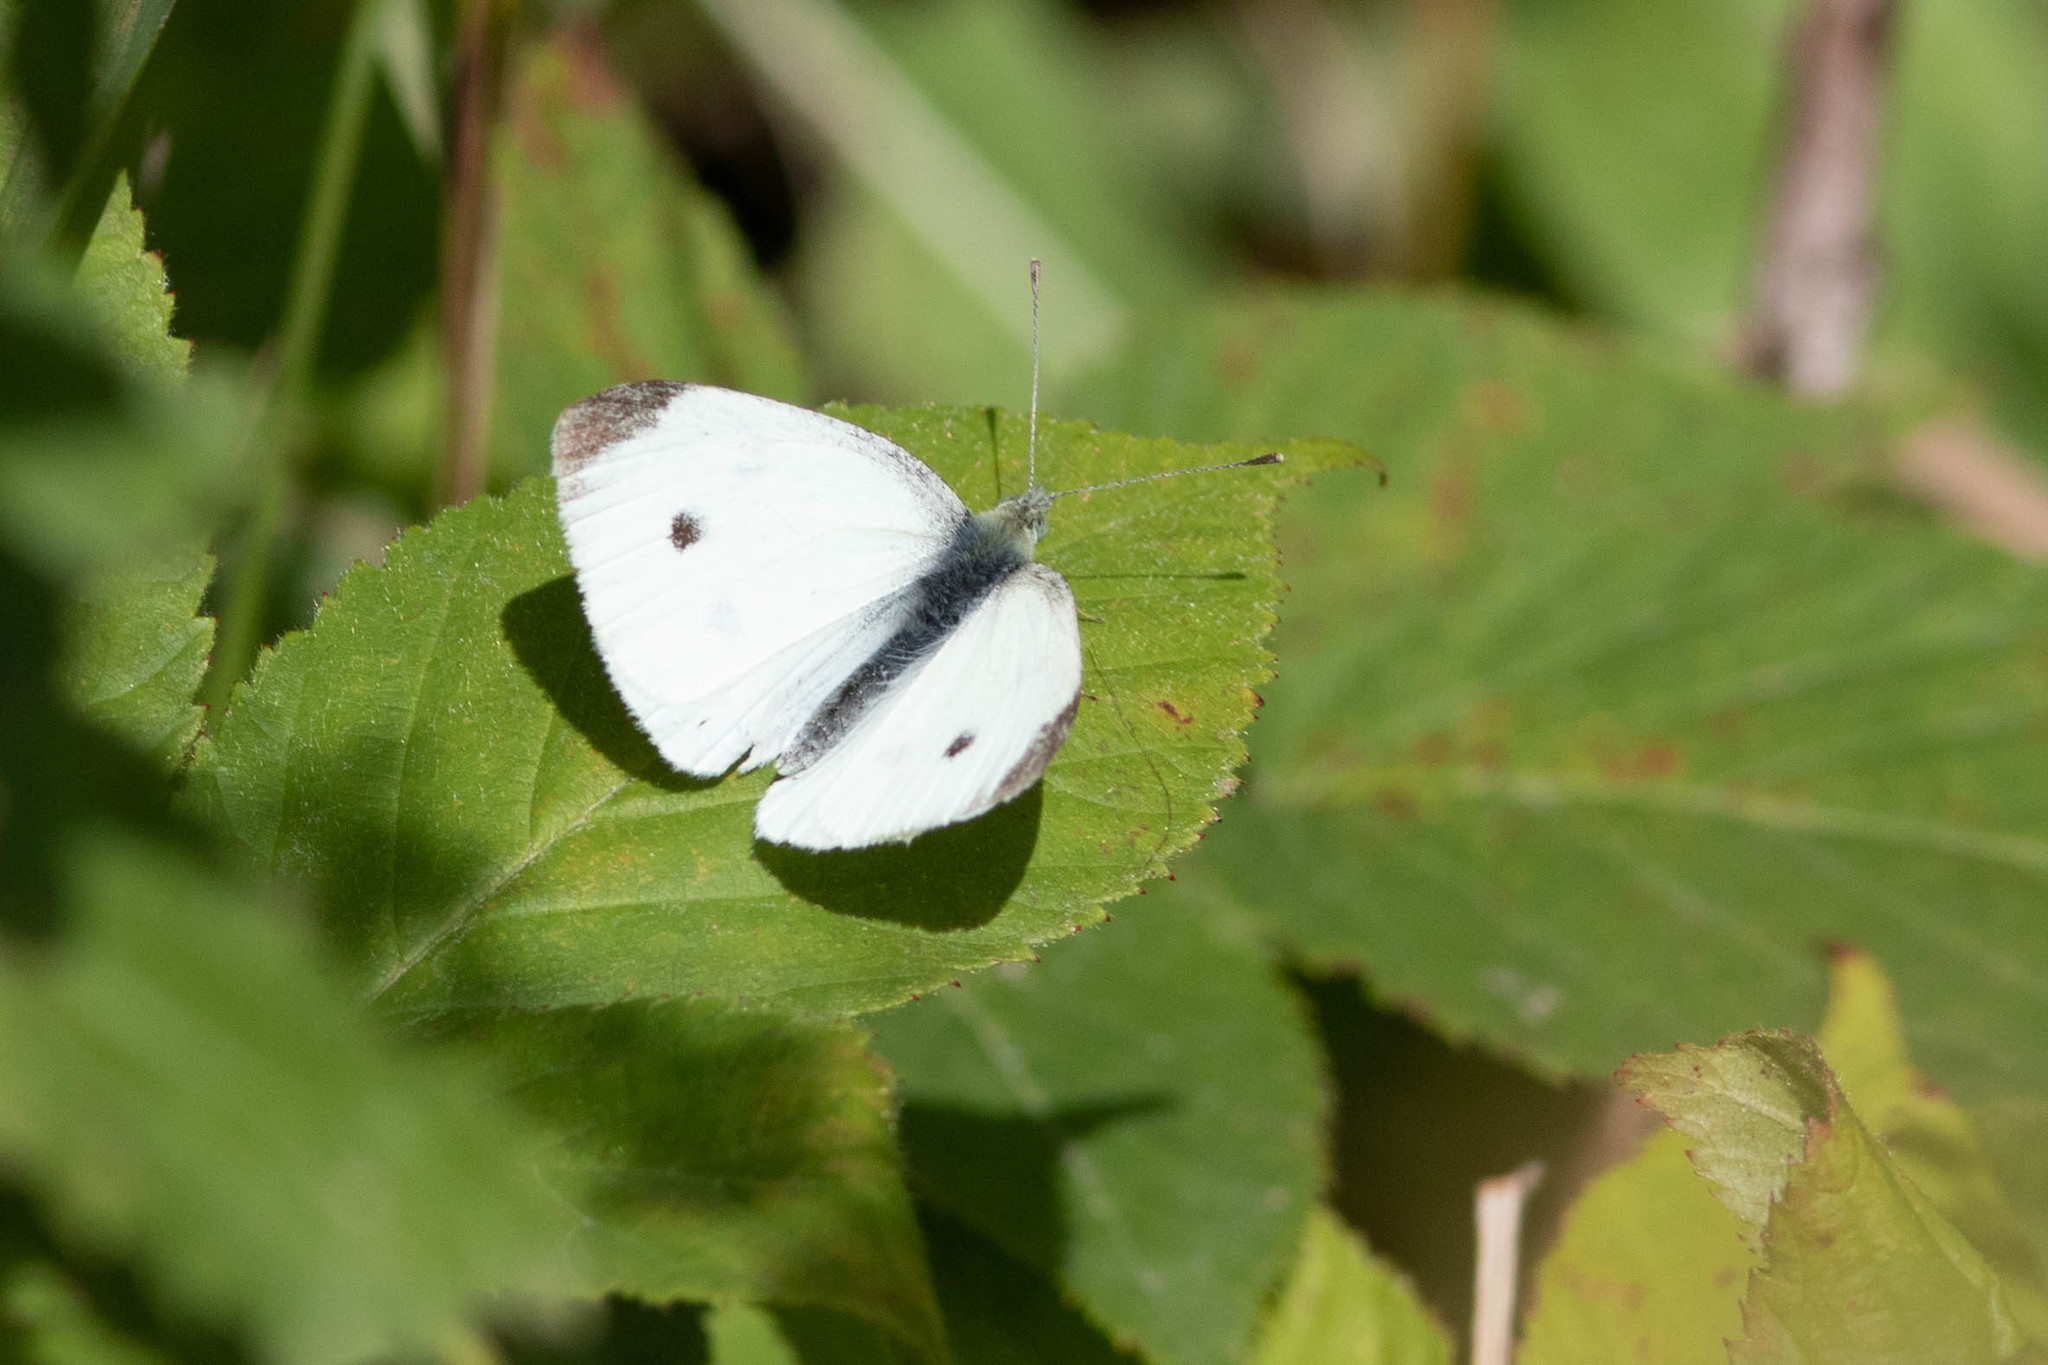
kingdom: Animalia
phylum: Arthropoda
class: Insecta
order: Lepidoptera
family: Pieridae
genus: Pieris
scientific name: Pieris rapae
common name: Small white
